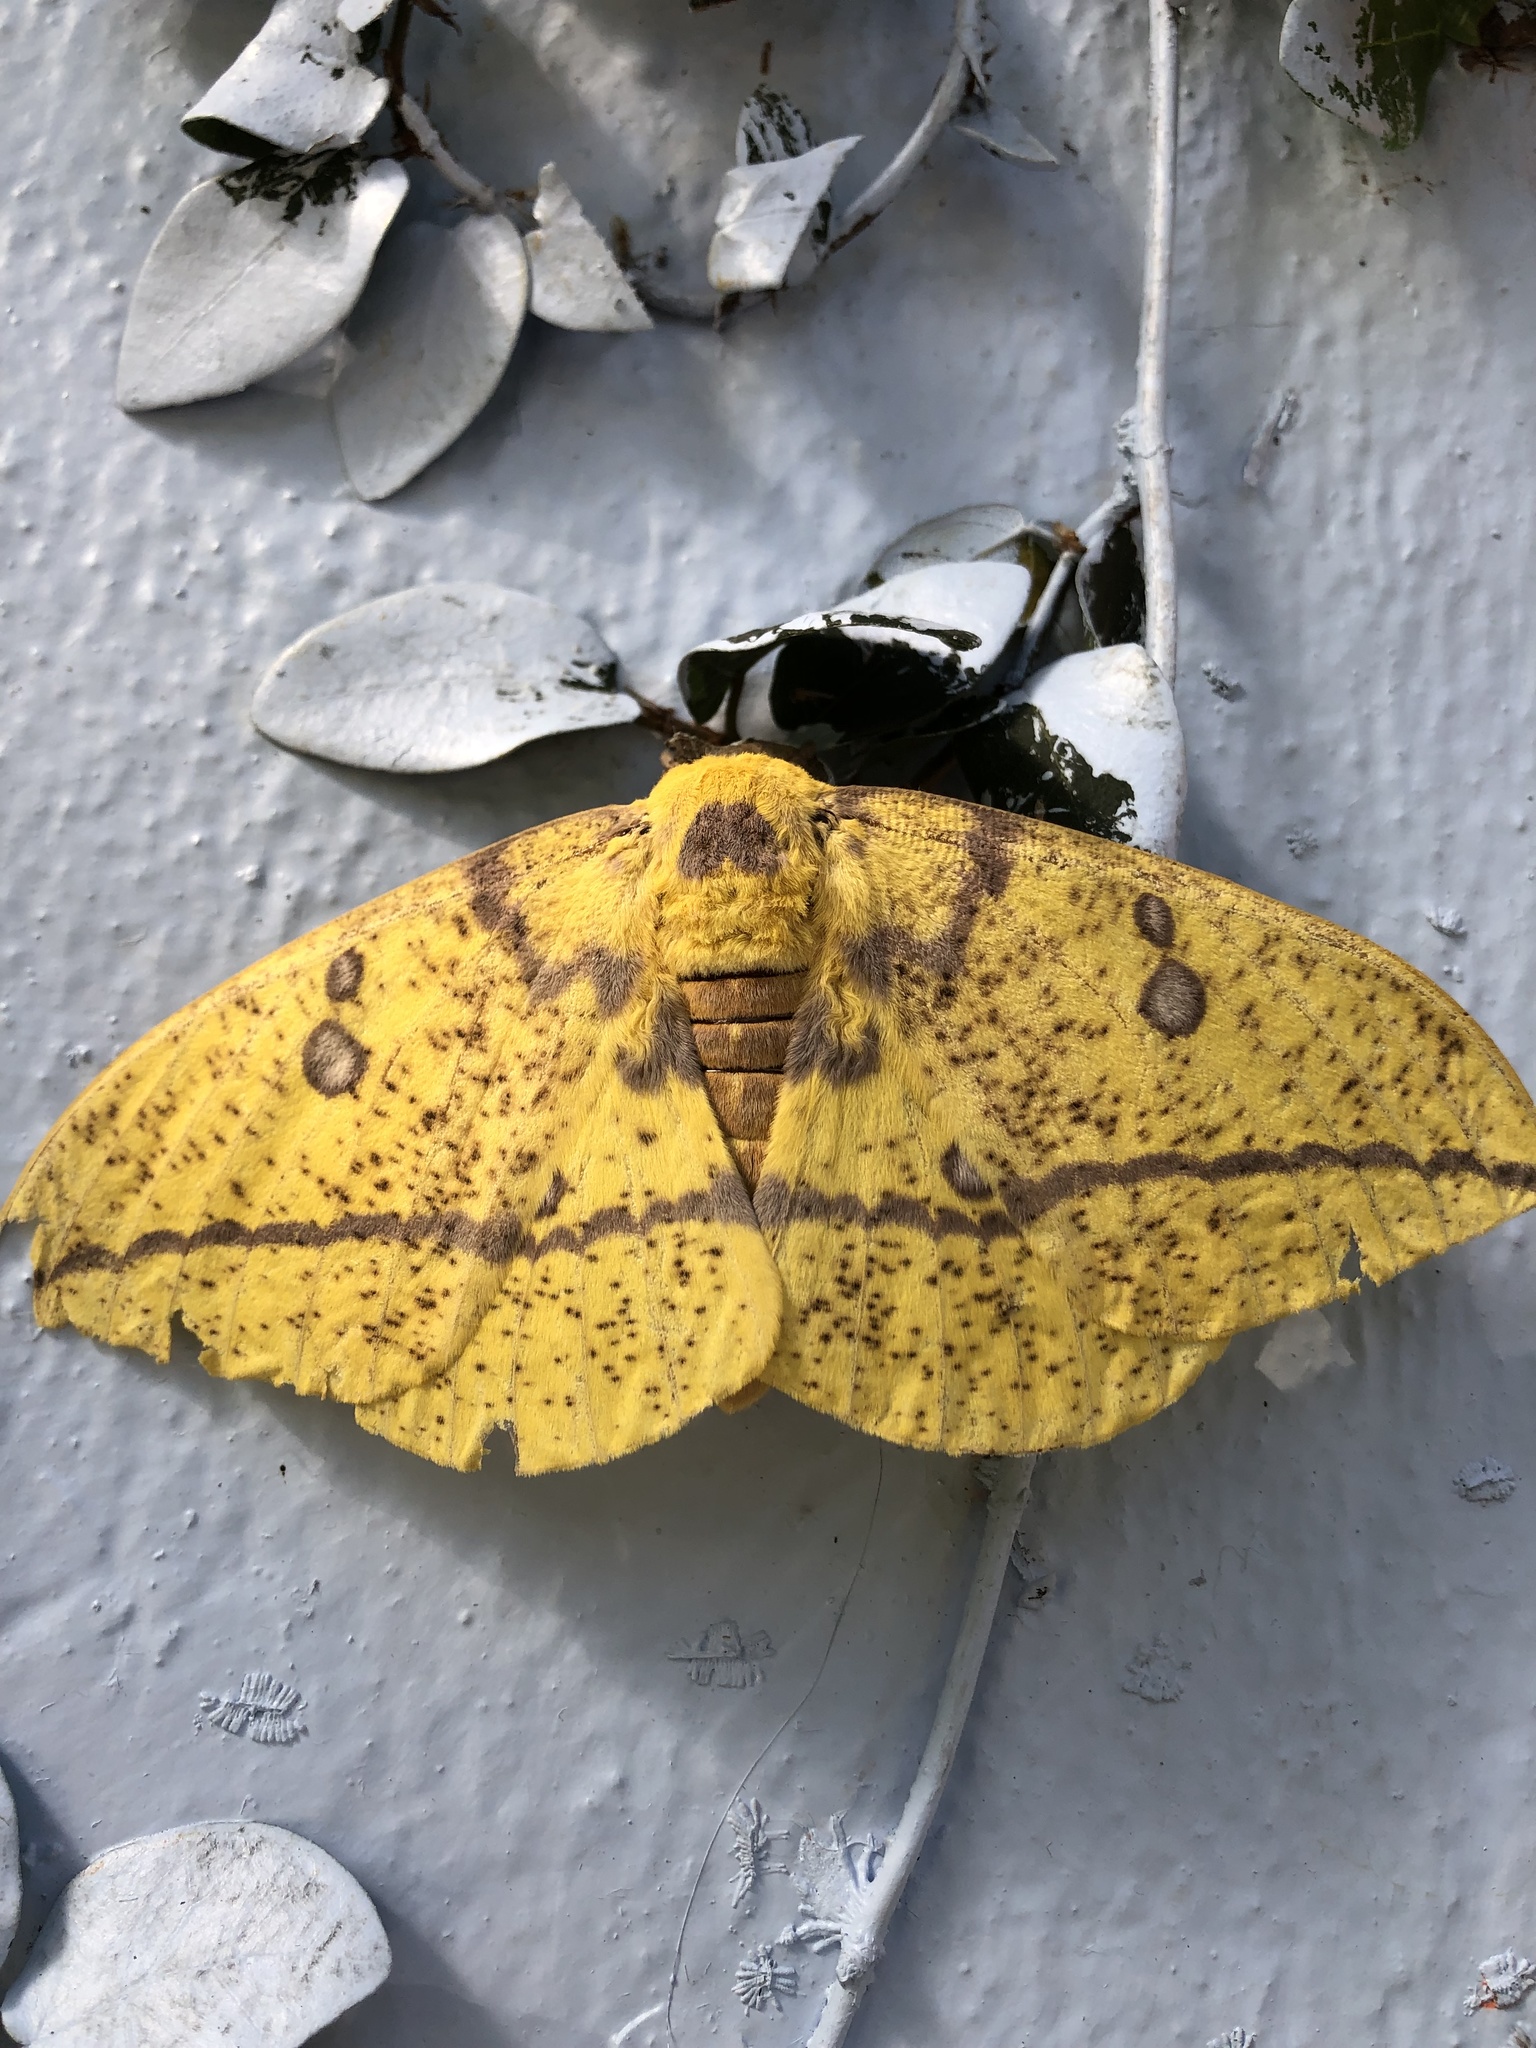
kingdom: Animalia
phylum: Arthropoda
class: Insecta
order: Lepidoptera
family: Saturniidae
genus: Eacles
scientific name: Eacles imperialis
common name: Imperial moth
